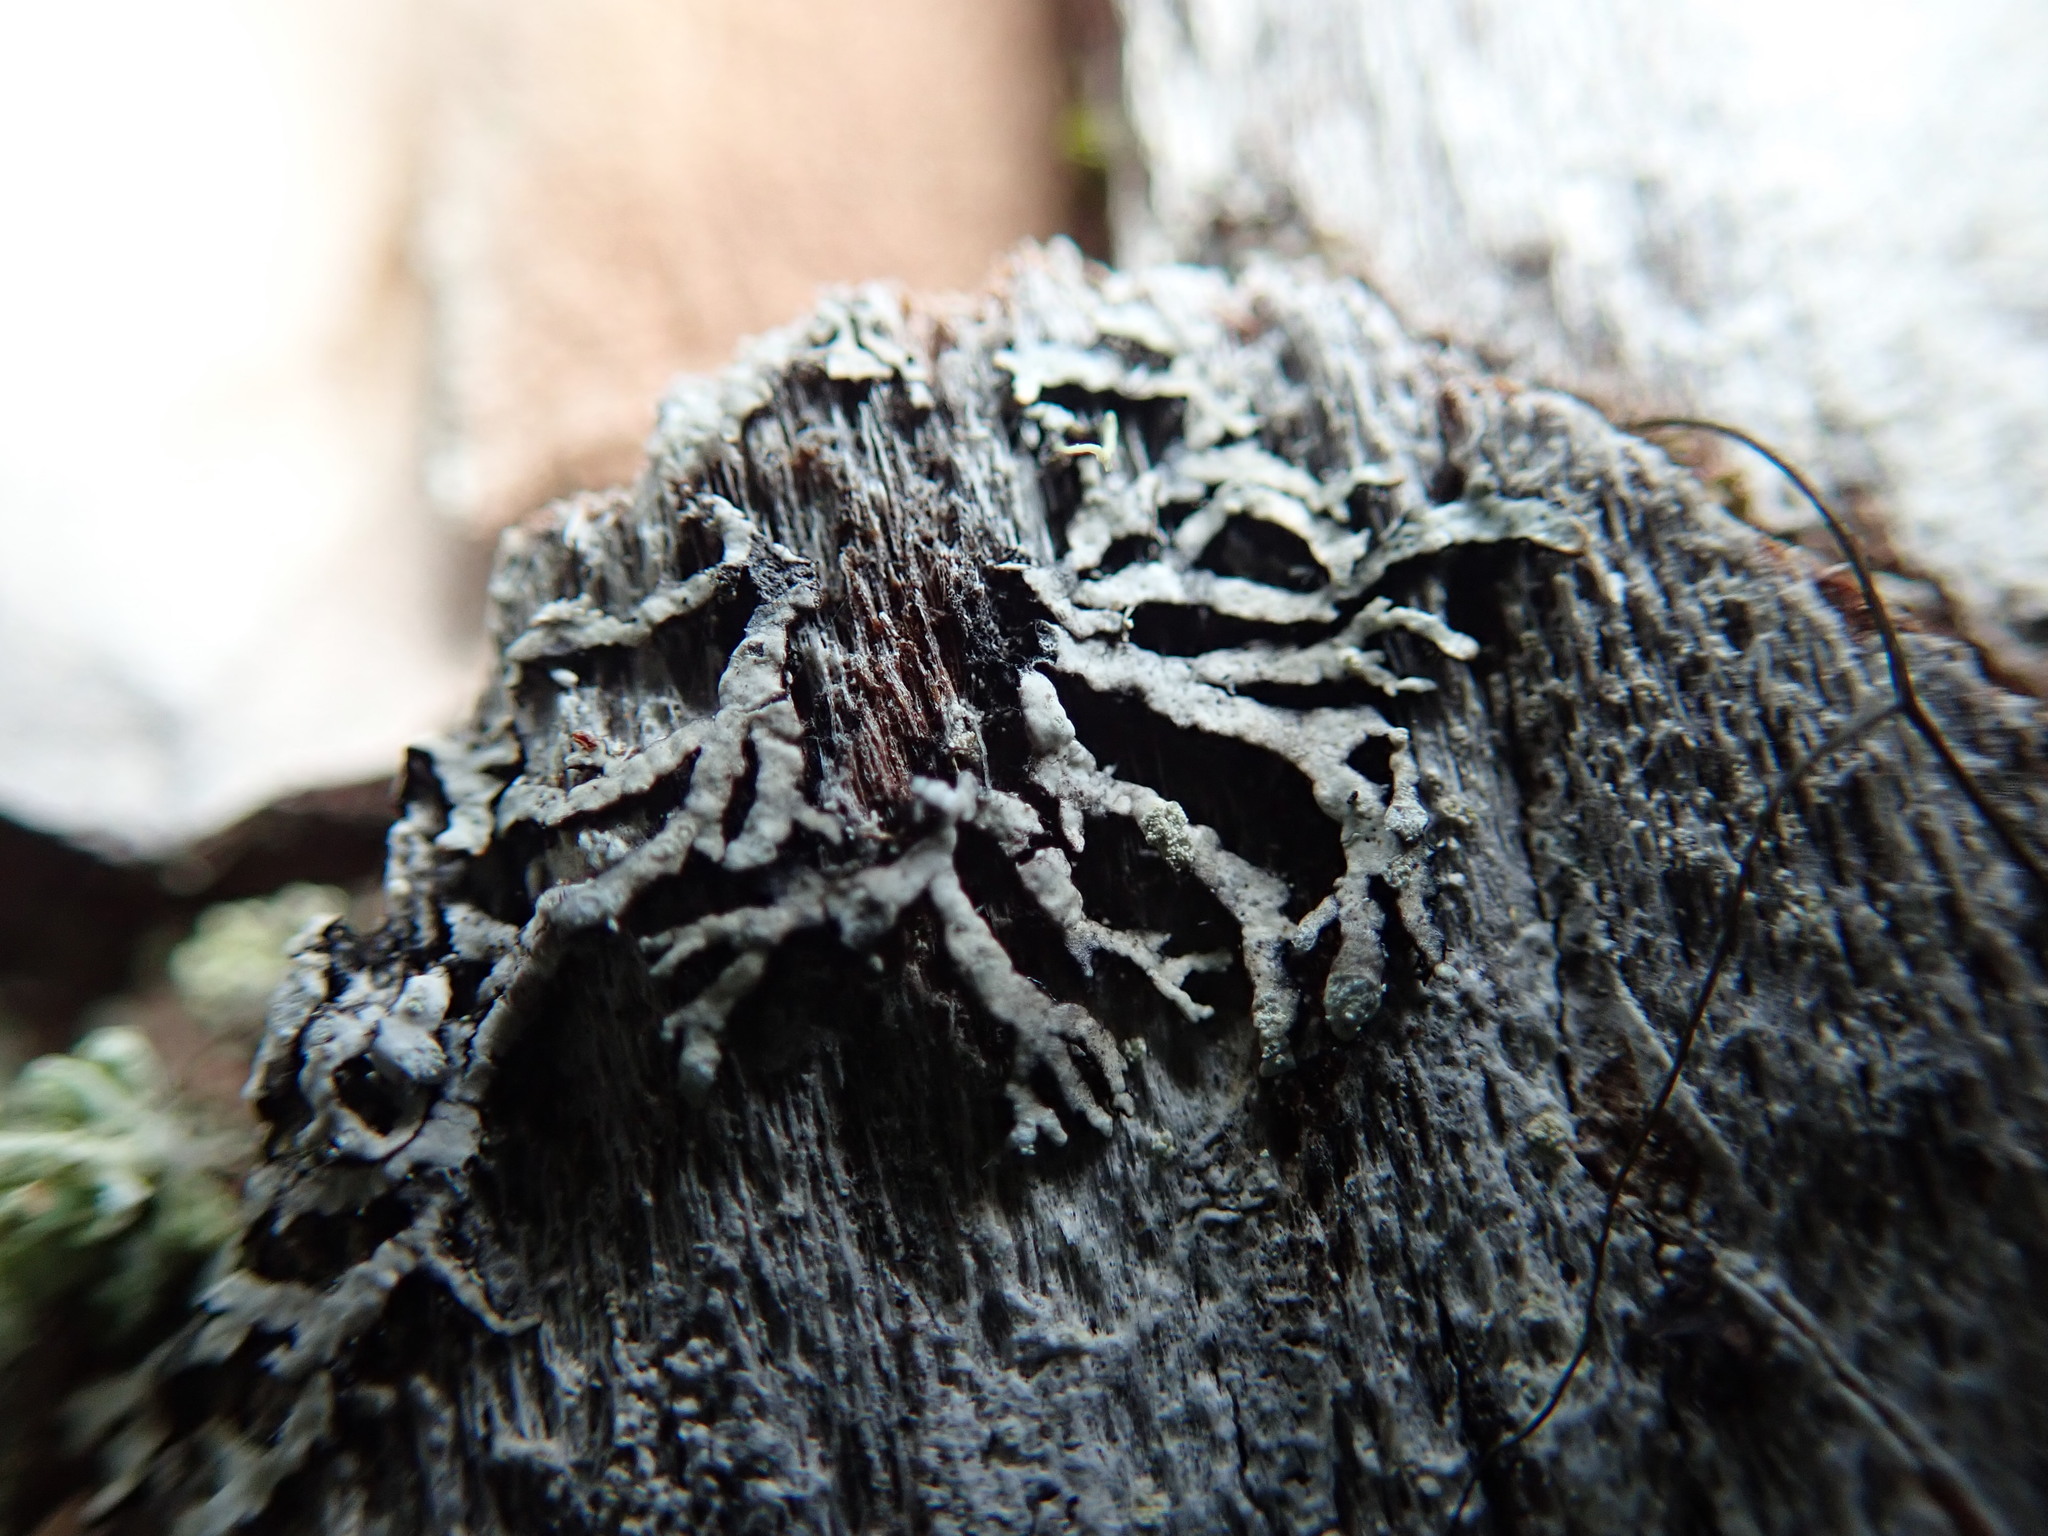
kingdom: Fungi
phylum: Ascomycota
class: Lecanoromycetes
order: Lecanorales
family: Parmeliaceae
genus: Parmeliopsis
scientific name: Parmeliopsis hyperopta
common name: Grey starburst lichen
